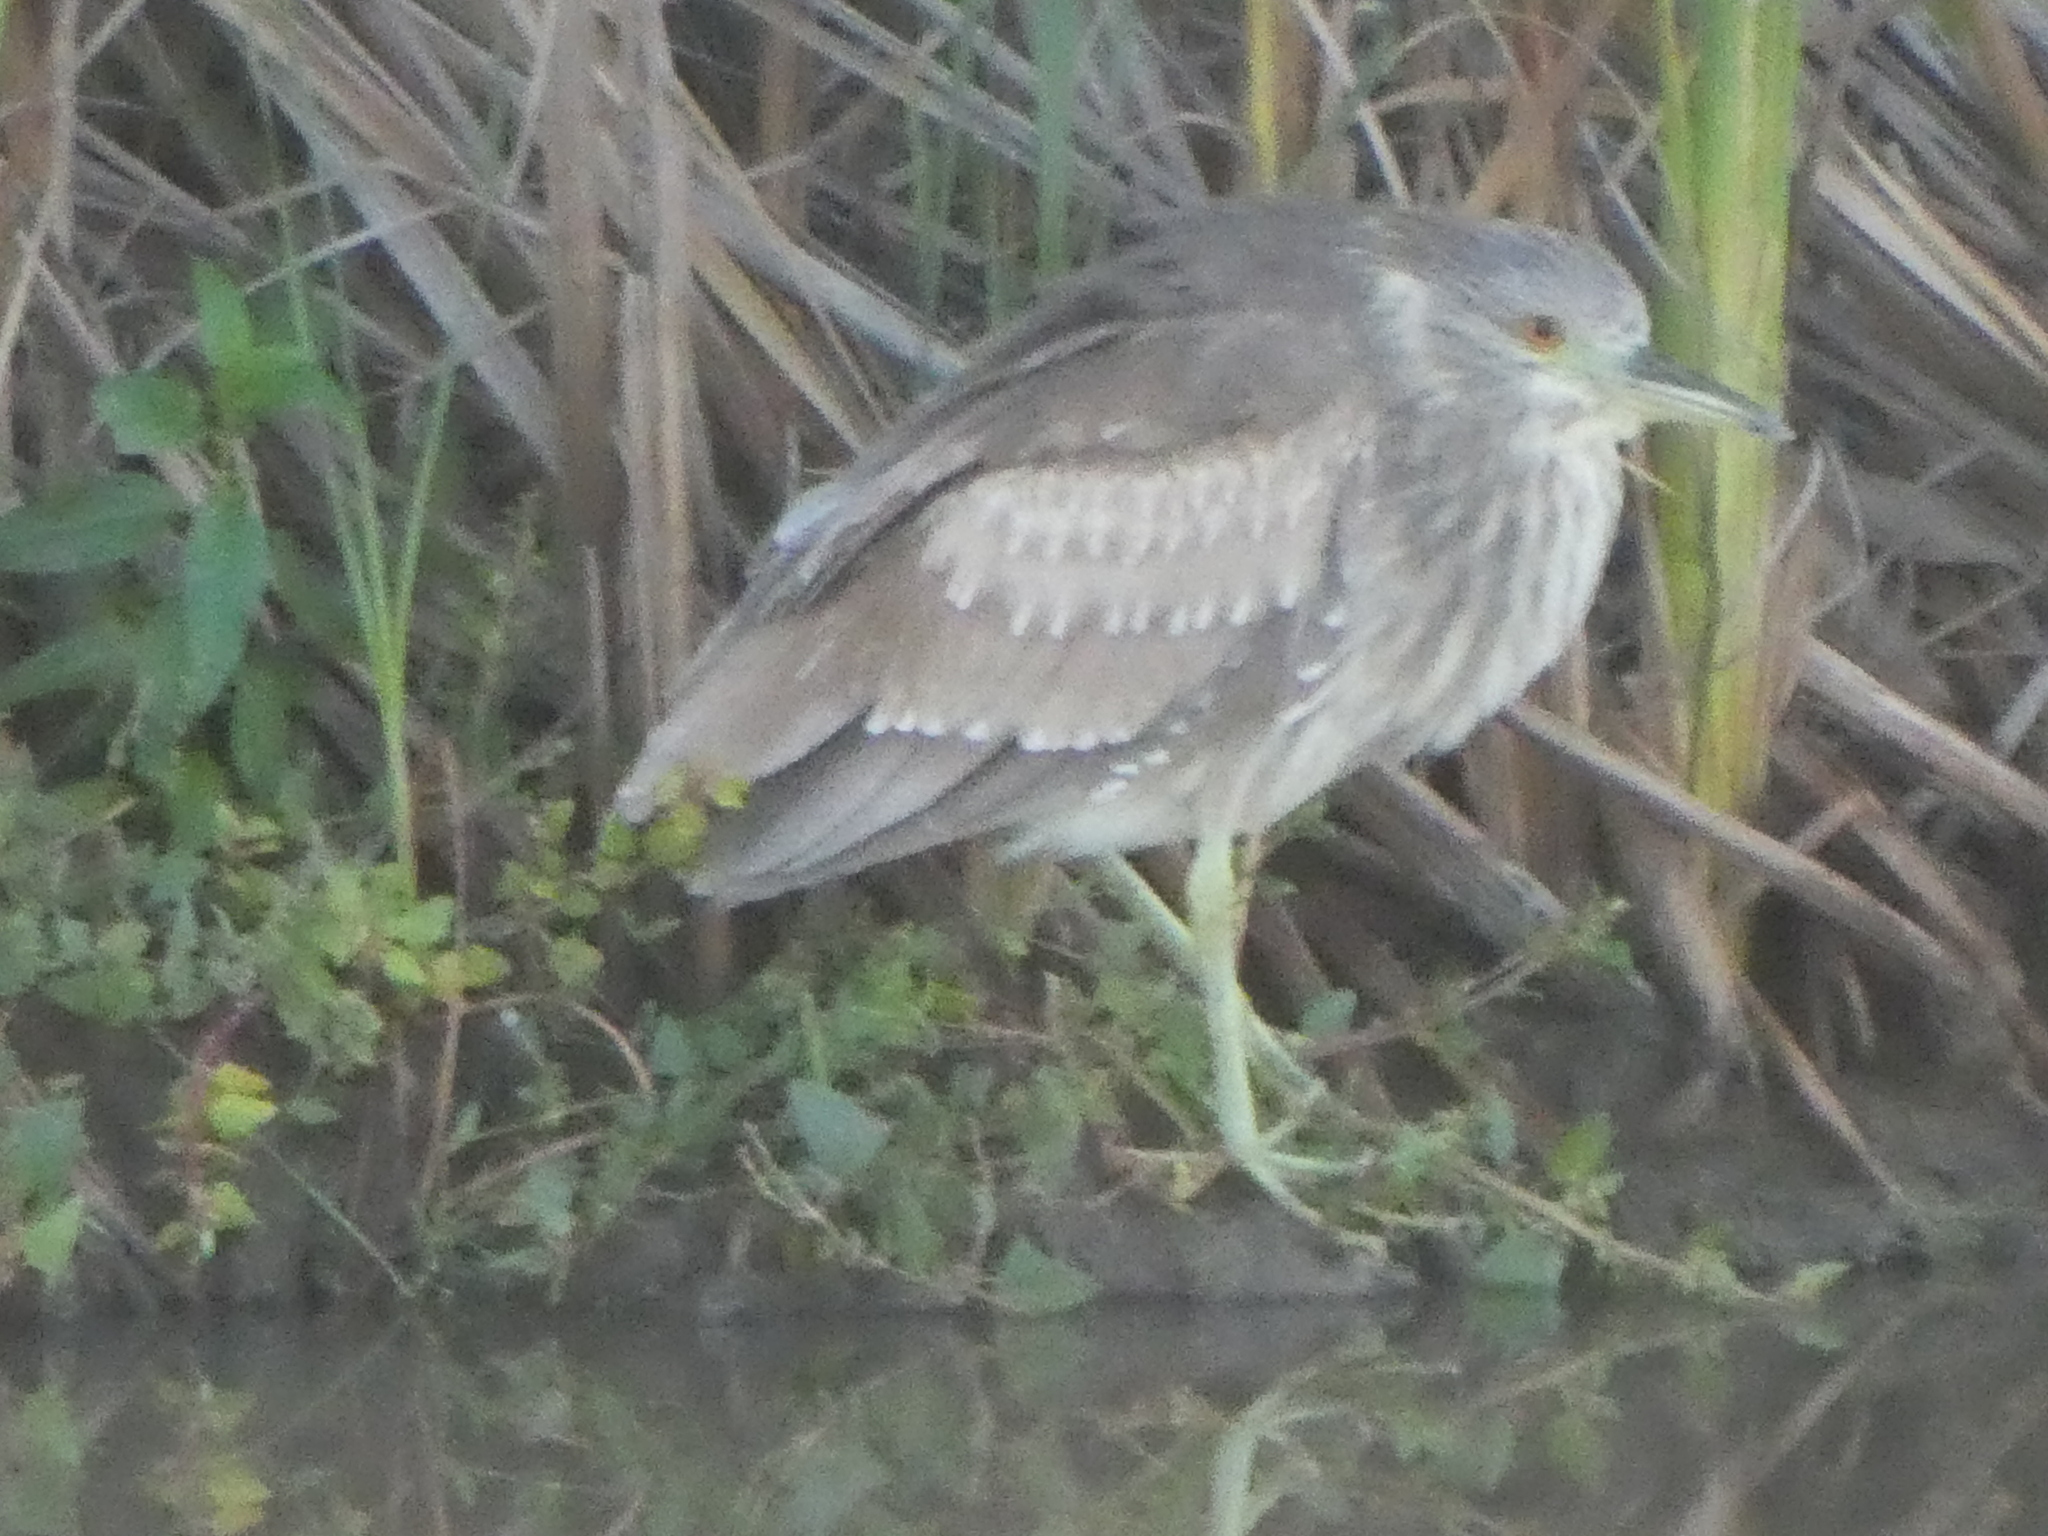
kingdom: Animalia
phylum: Chordata
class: Aves
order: Pelecaniformes
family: Ardeidae
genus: Nycticorax
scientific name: Nycticorax nycticorax
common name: Black-crowned night heron
